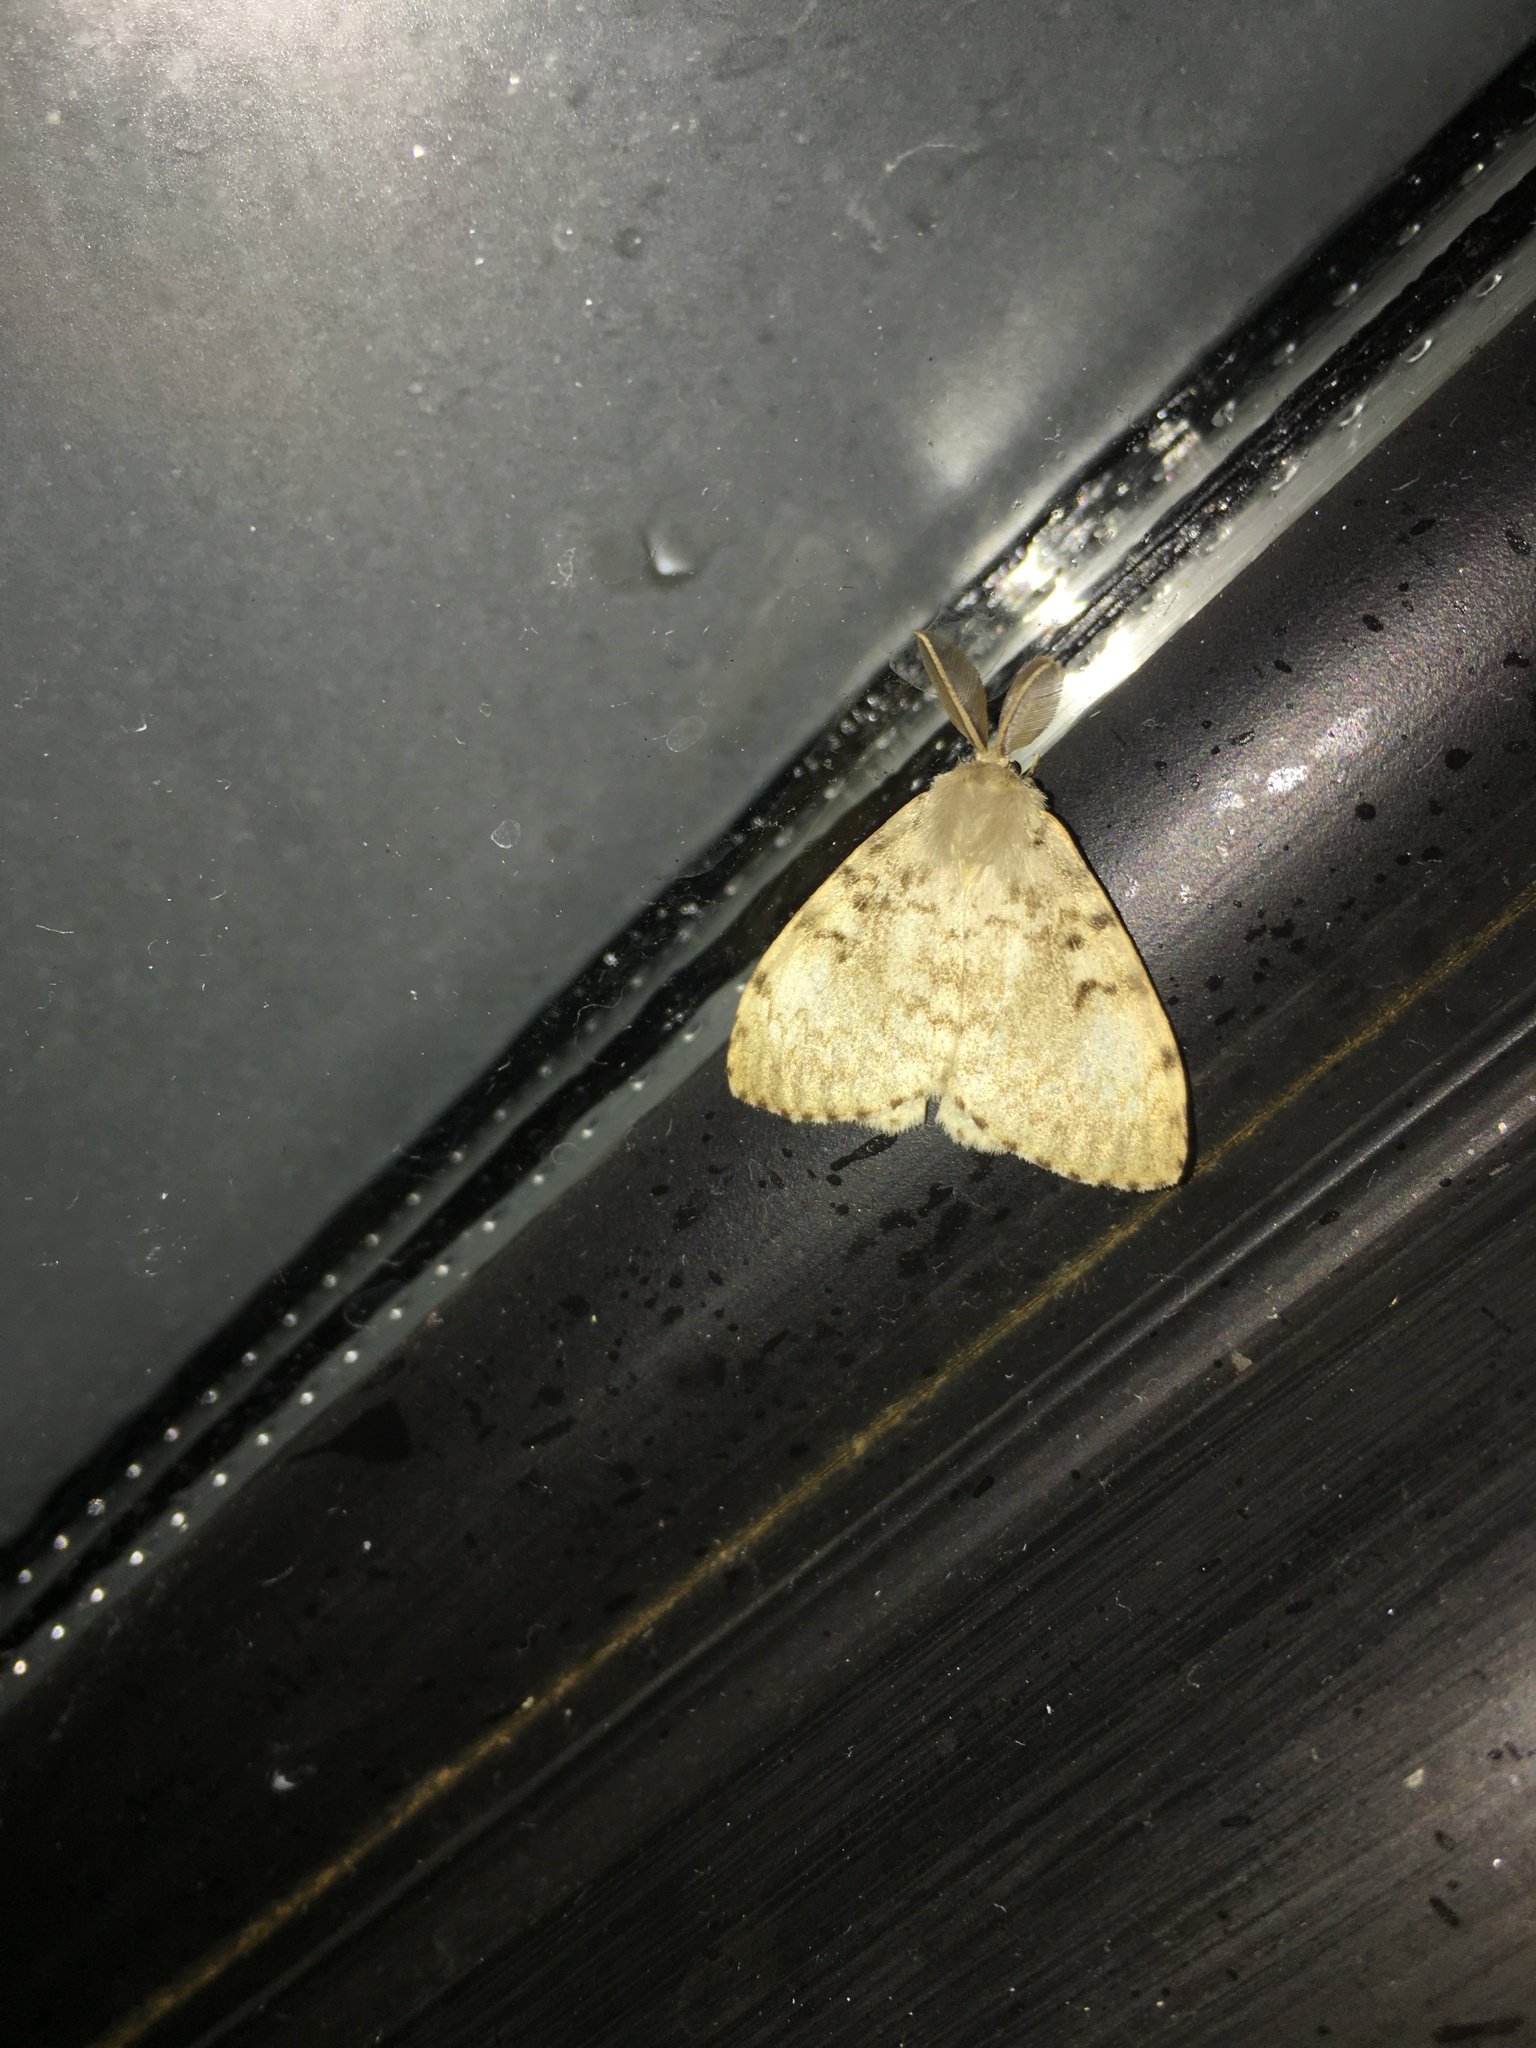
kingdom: Animalia
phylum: Arthropoda
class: Insecta
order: Lepidoptera
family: Erebidae
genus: Lymantria
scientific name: Lymantria dispar
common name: Gypsy moth
